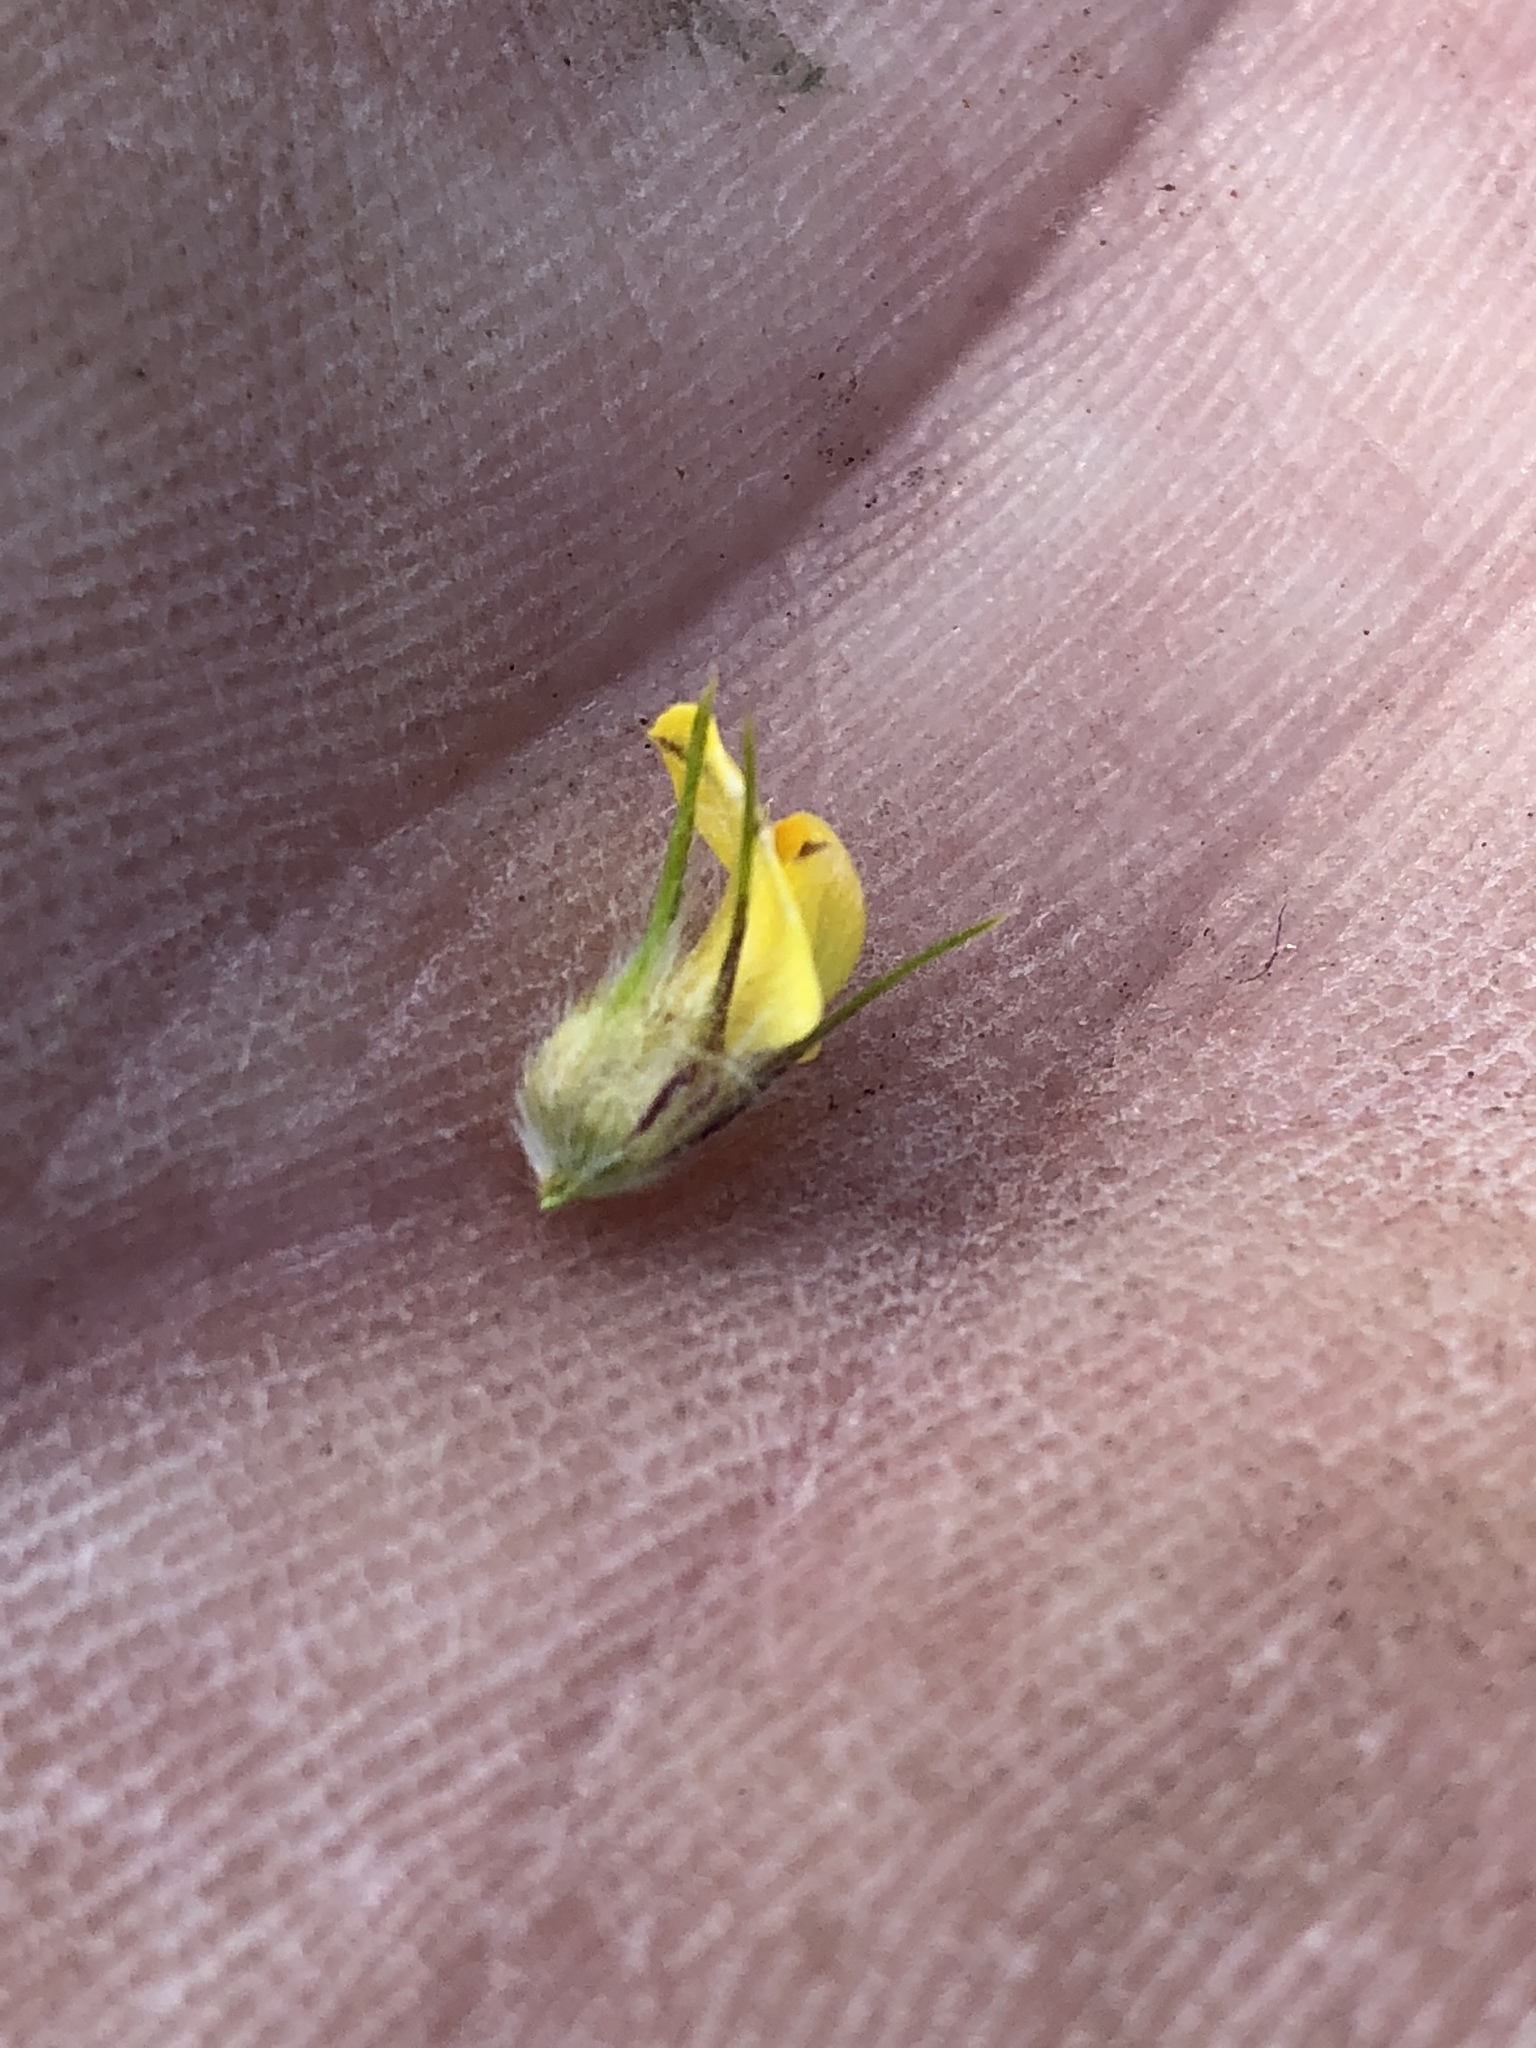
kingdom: Plantae
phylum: Tracheophyta
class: Magnoliopsida
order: Fabales
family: Fabaceae
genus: Aspalathus
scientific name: Aspalathus alopecurus
